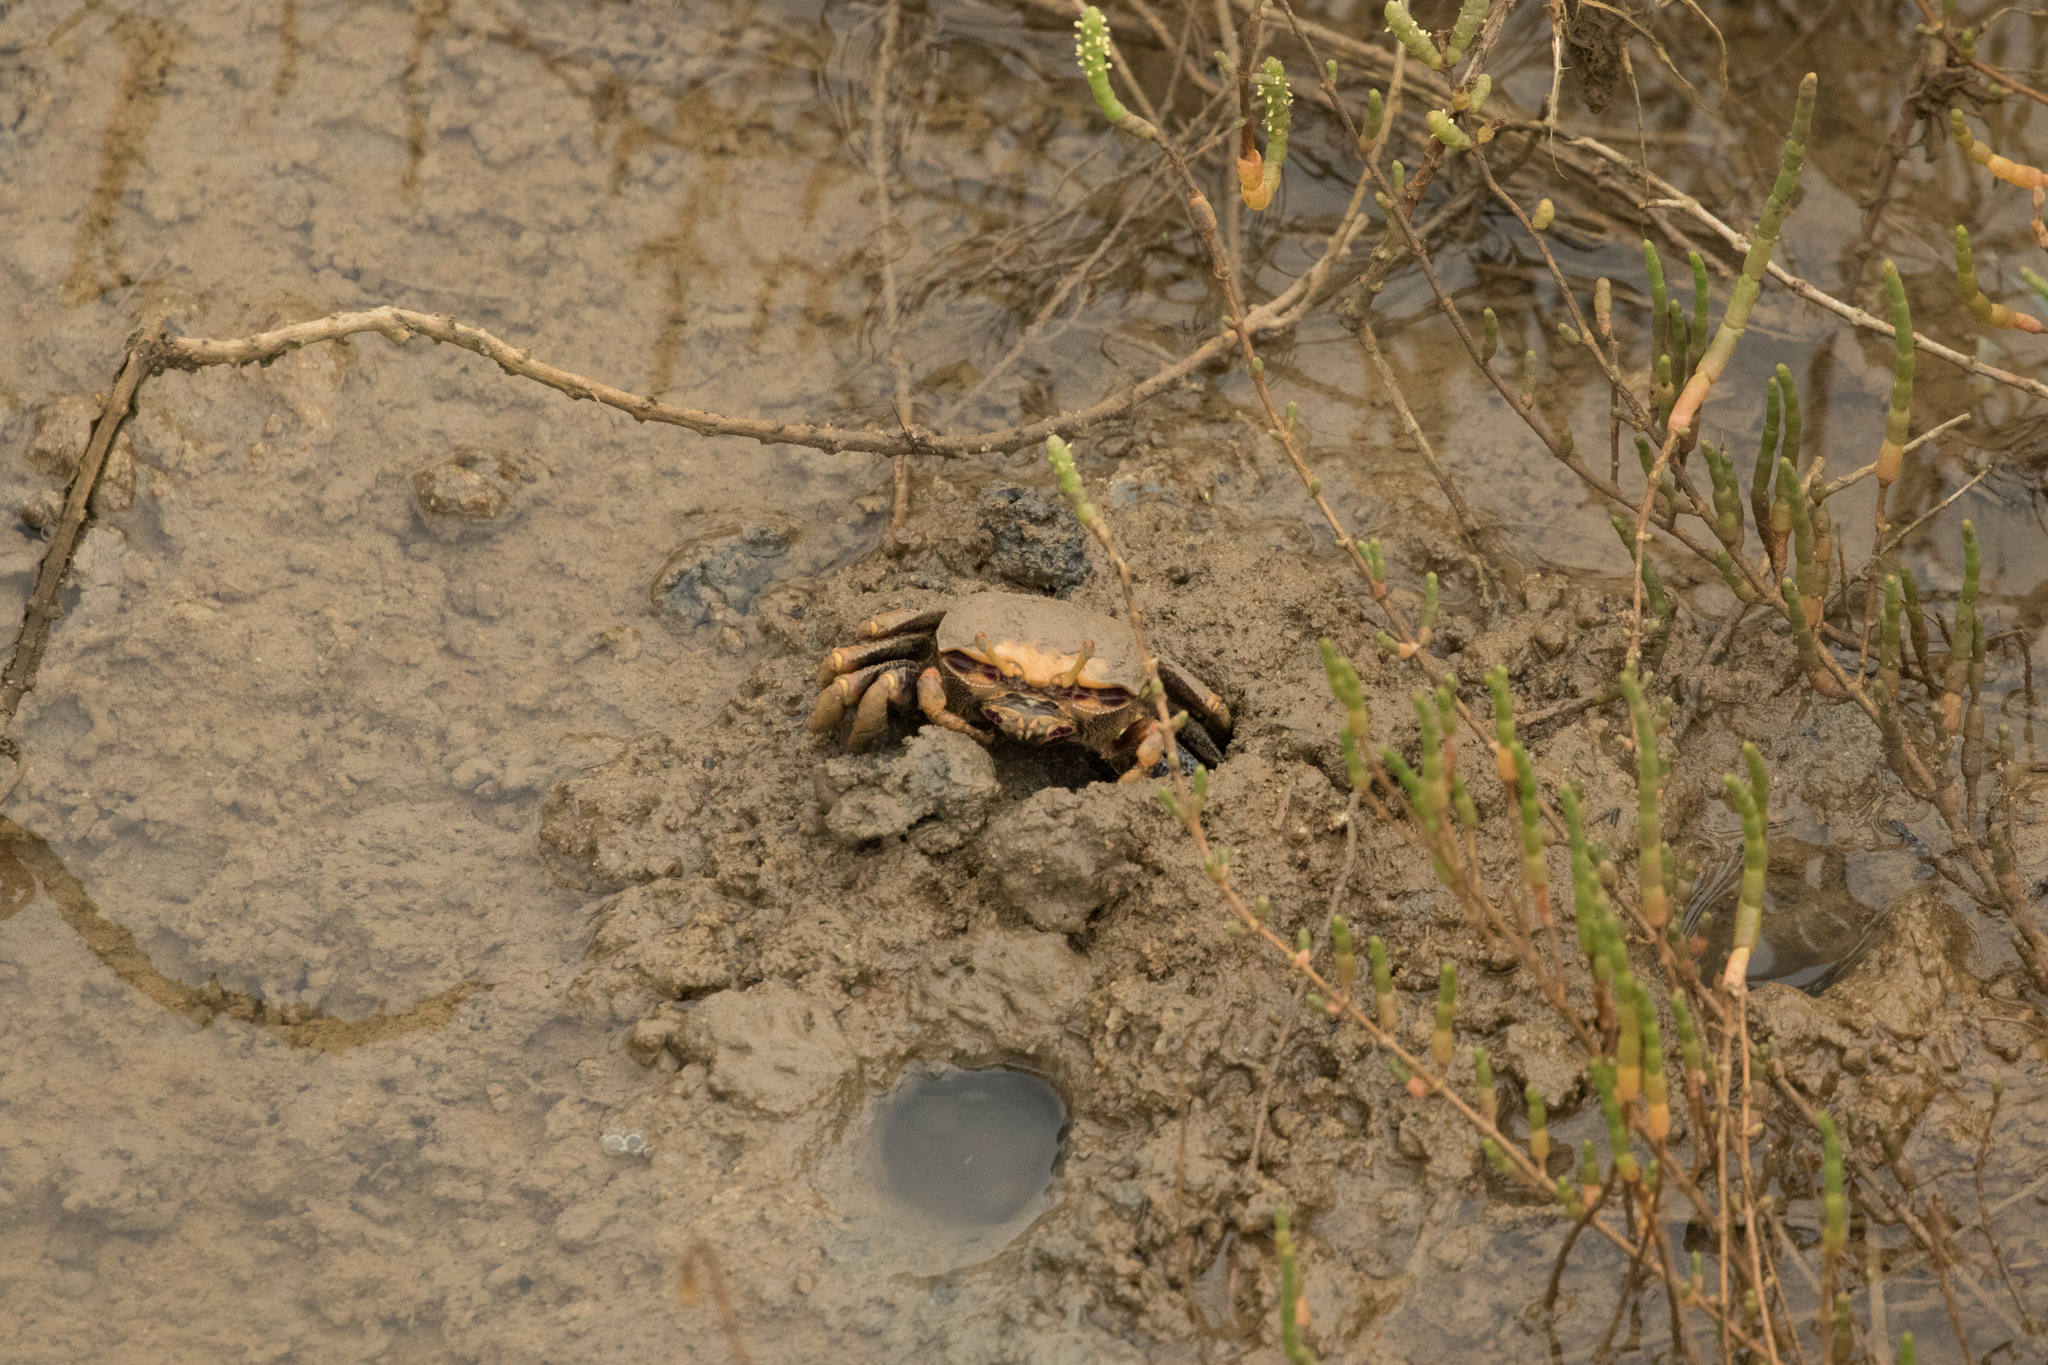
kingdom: Animalia
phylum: Arthropoda
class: Malacostraca
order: Decapoda
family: Ocypodidae
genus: Afruca
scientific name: Afruca tangeri
